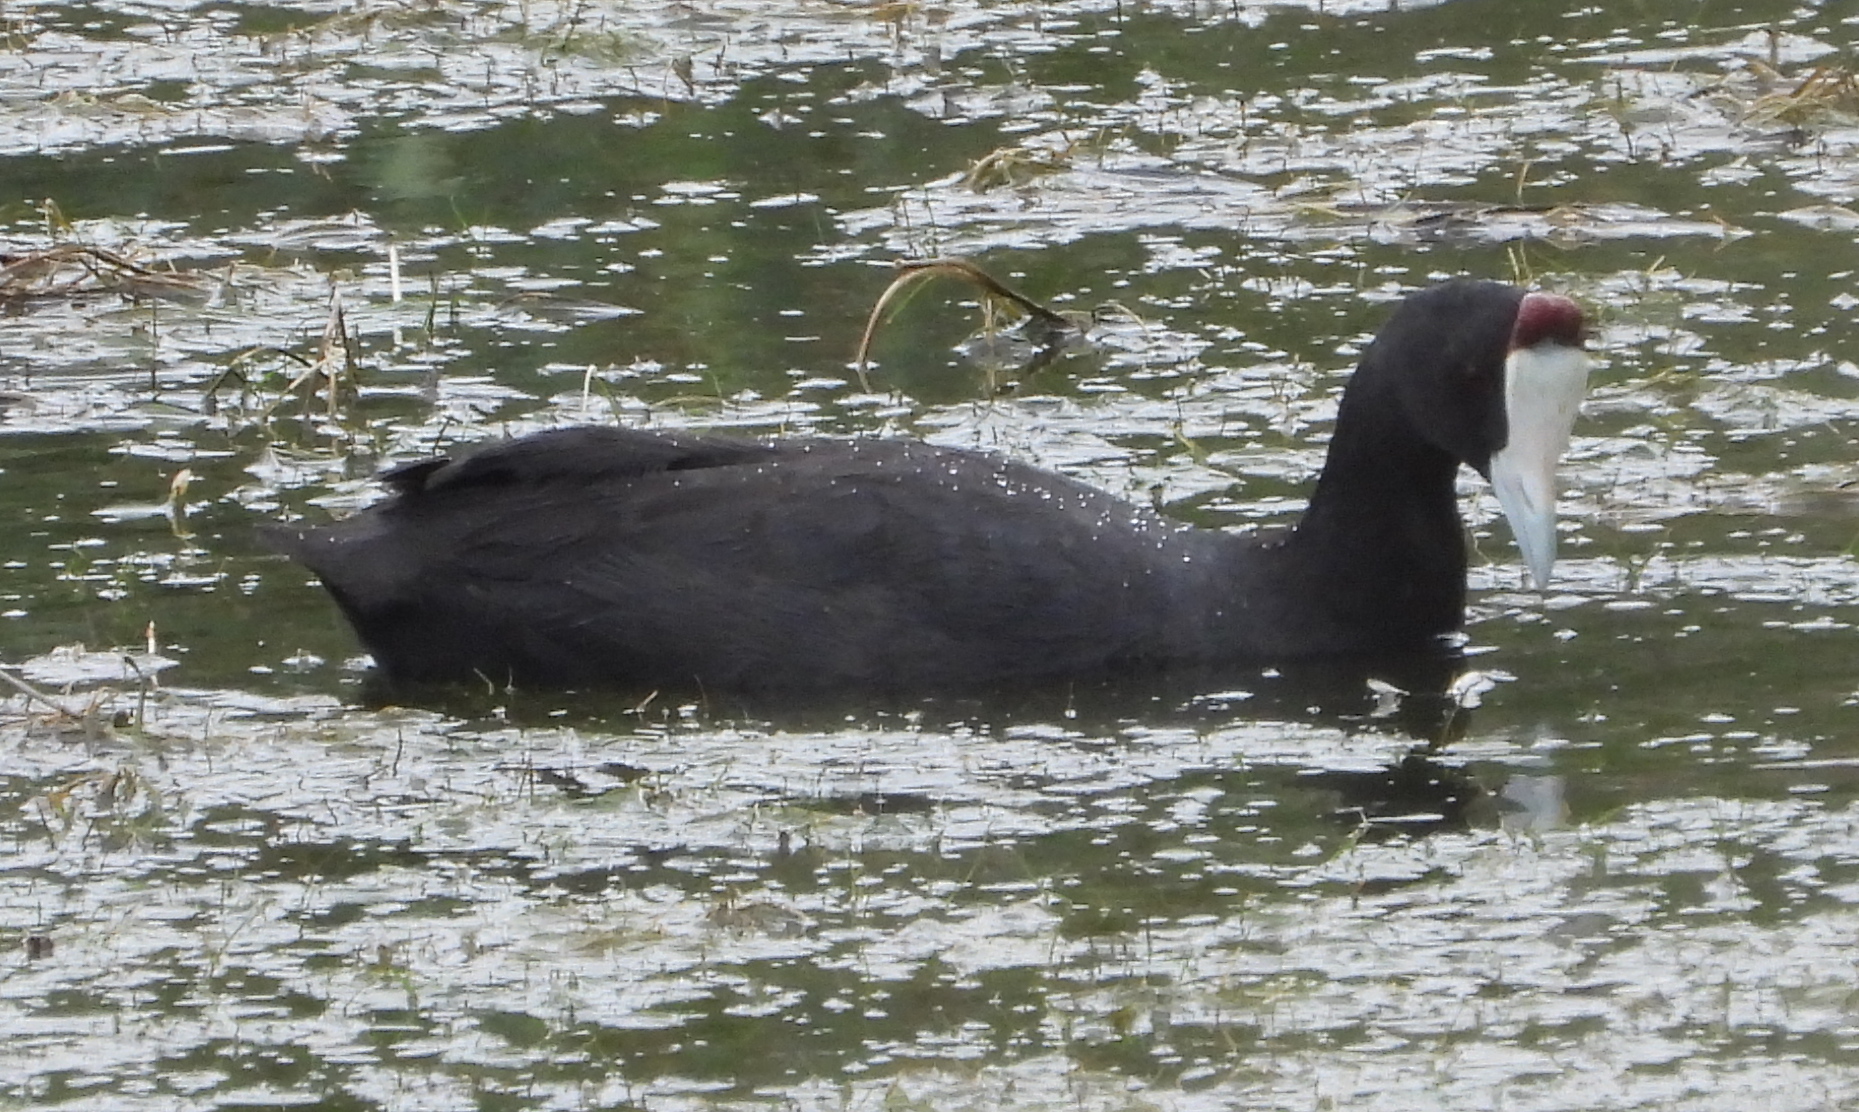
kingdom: Animalia
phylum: Chordata
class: Aves
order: Gruiformes
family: Rallidae
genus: Fulica
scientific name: Fulica cristata
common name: Red-knobbed coot
